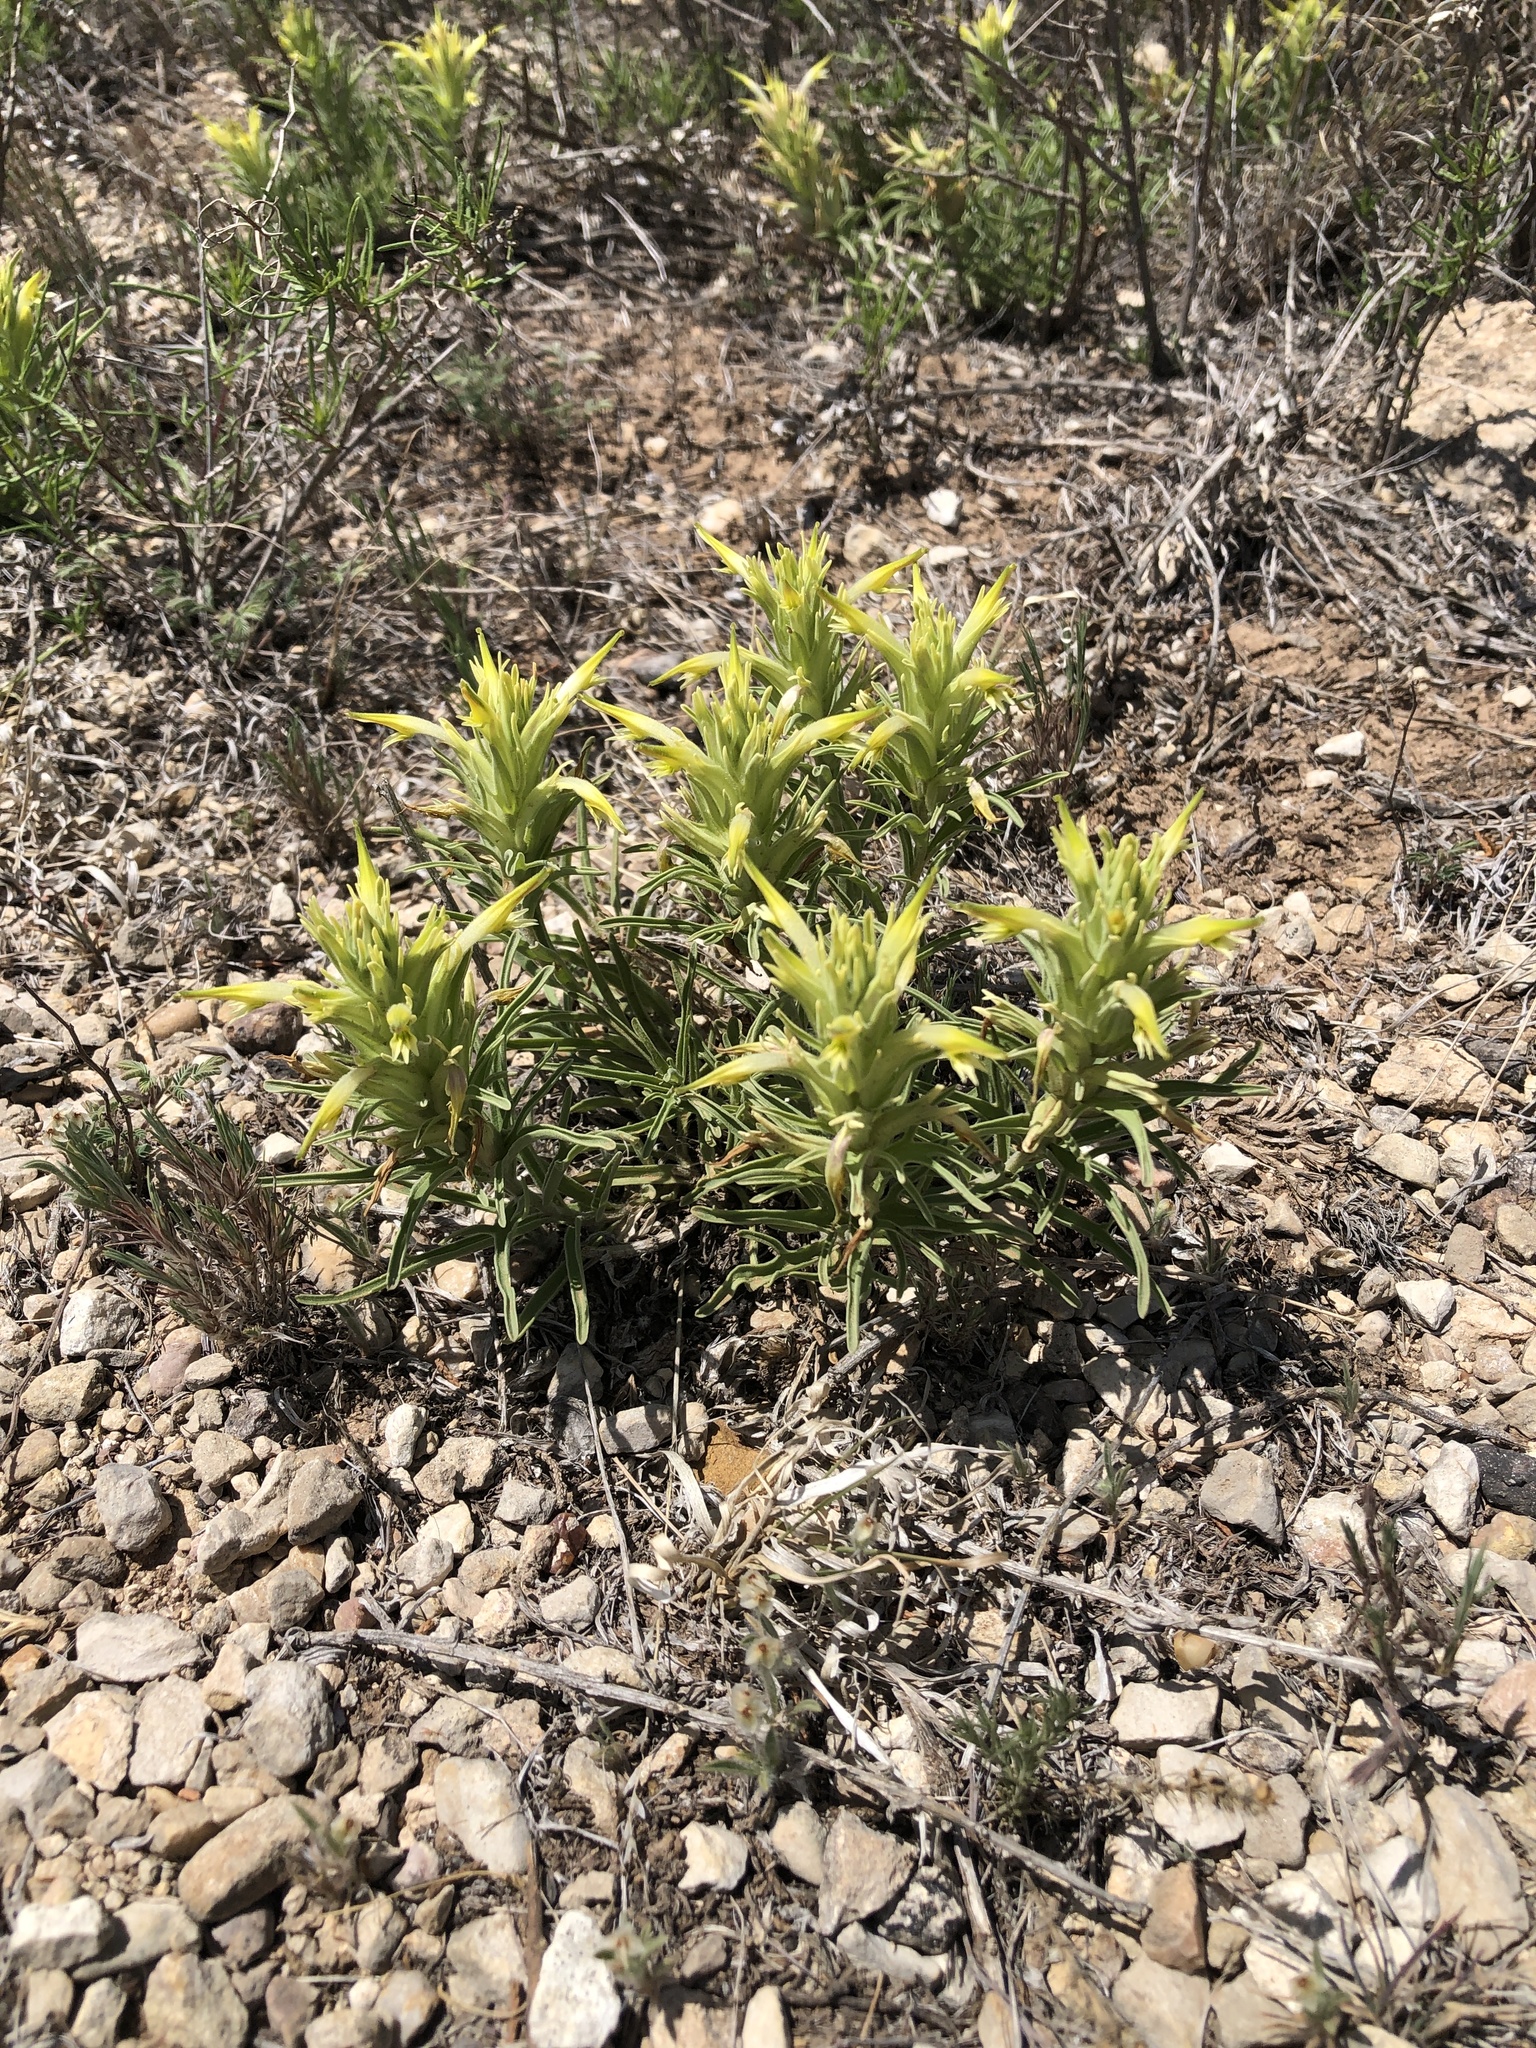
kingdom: Plantae
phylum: Tracheophyta
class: Magnoliopsida
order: Lamiales
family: Orobanchaceae
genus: Castilleja
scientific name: Castilleja sessiliflora
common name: Downy paintbrush
